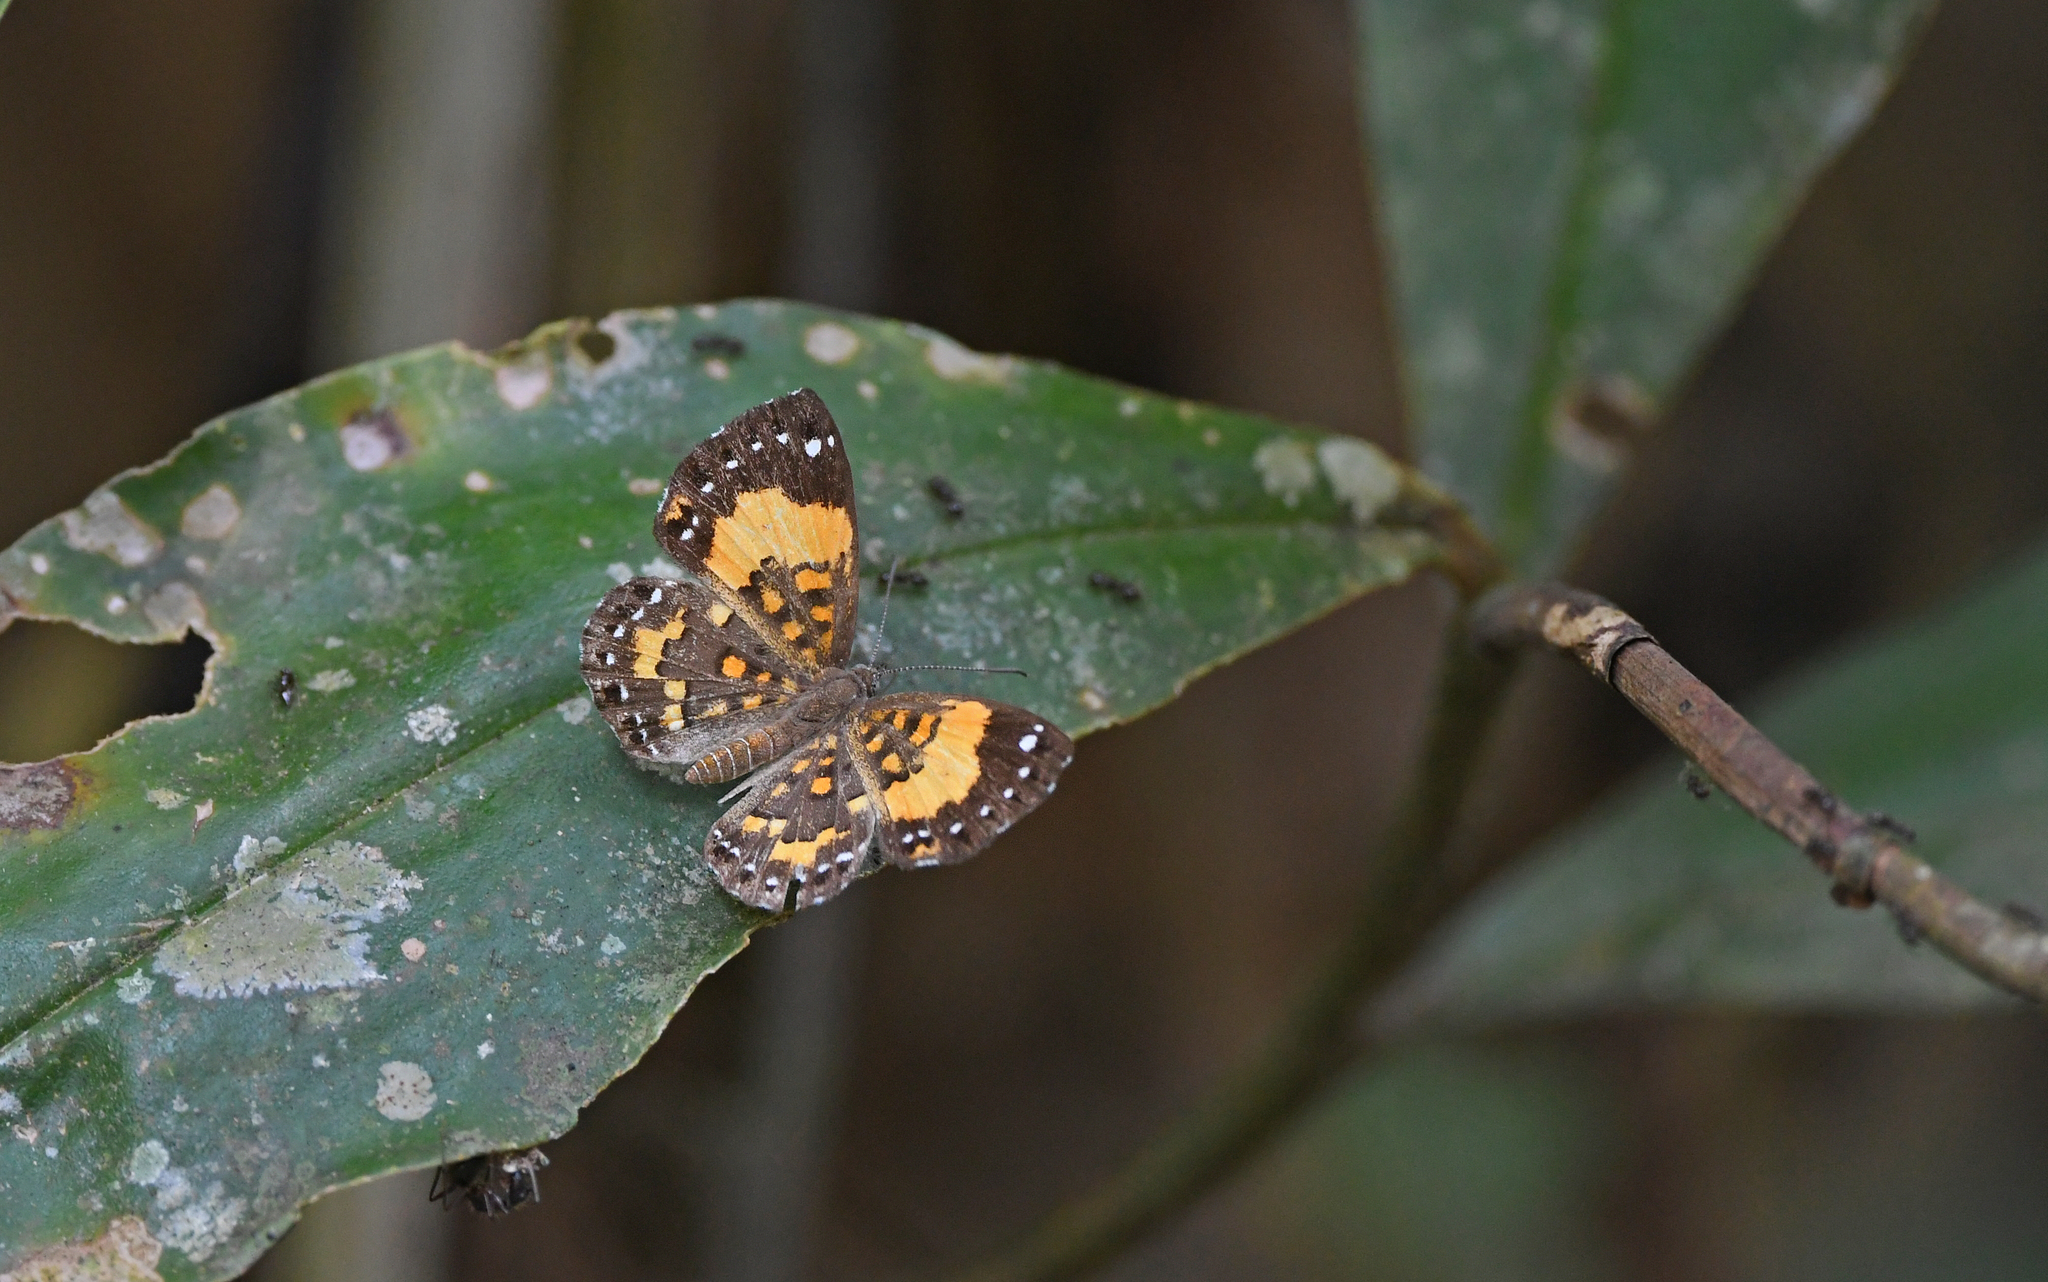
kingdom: Animalia
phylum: Arthropoda
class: Insecta
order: Lepidoptera
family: Riodinidae
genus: Polystichtis
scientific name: Polystichtis emylius
